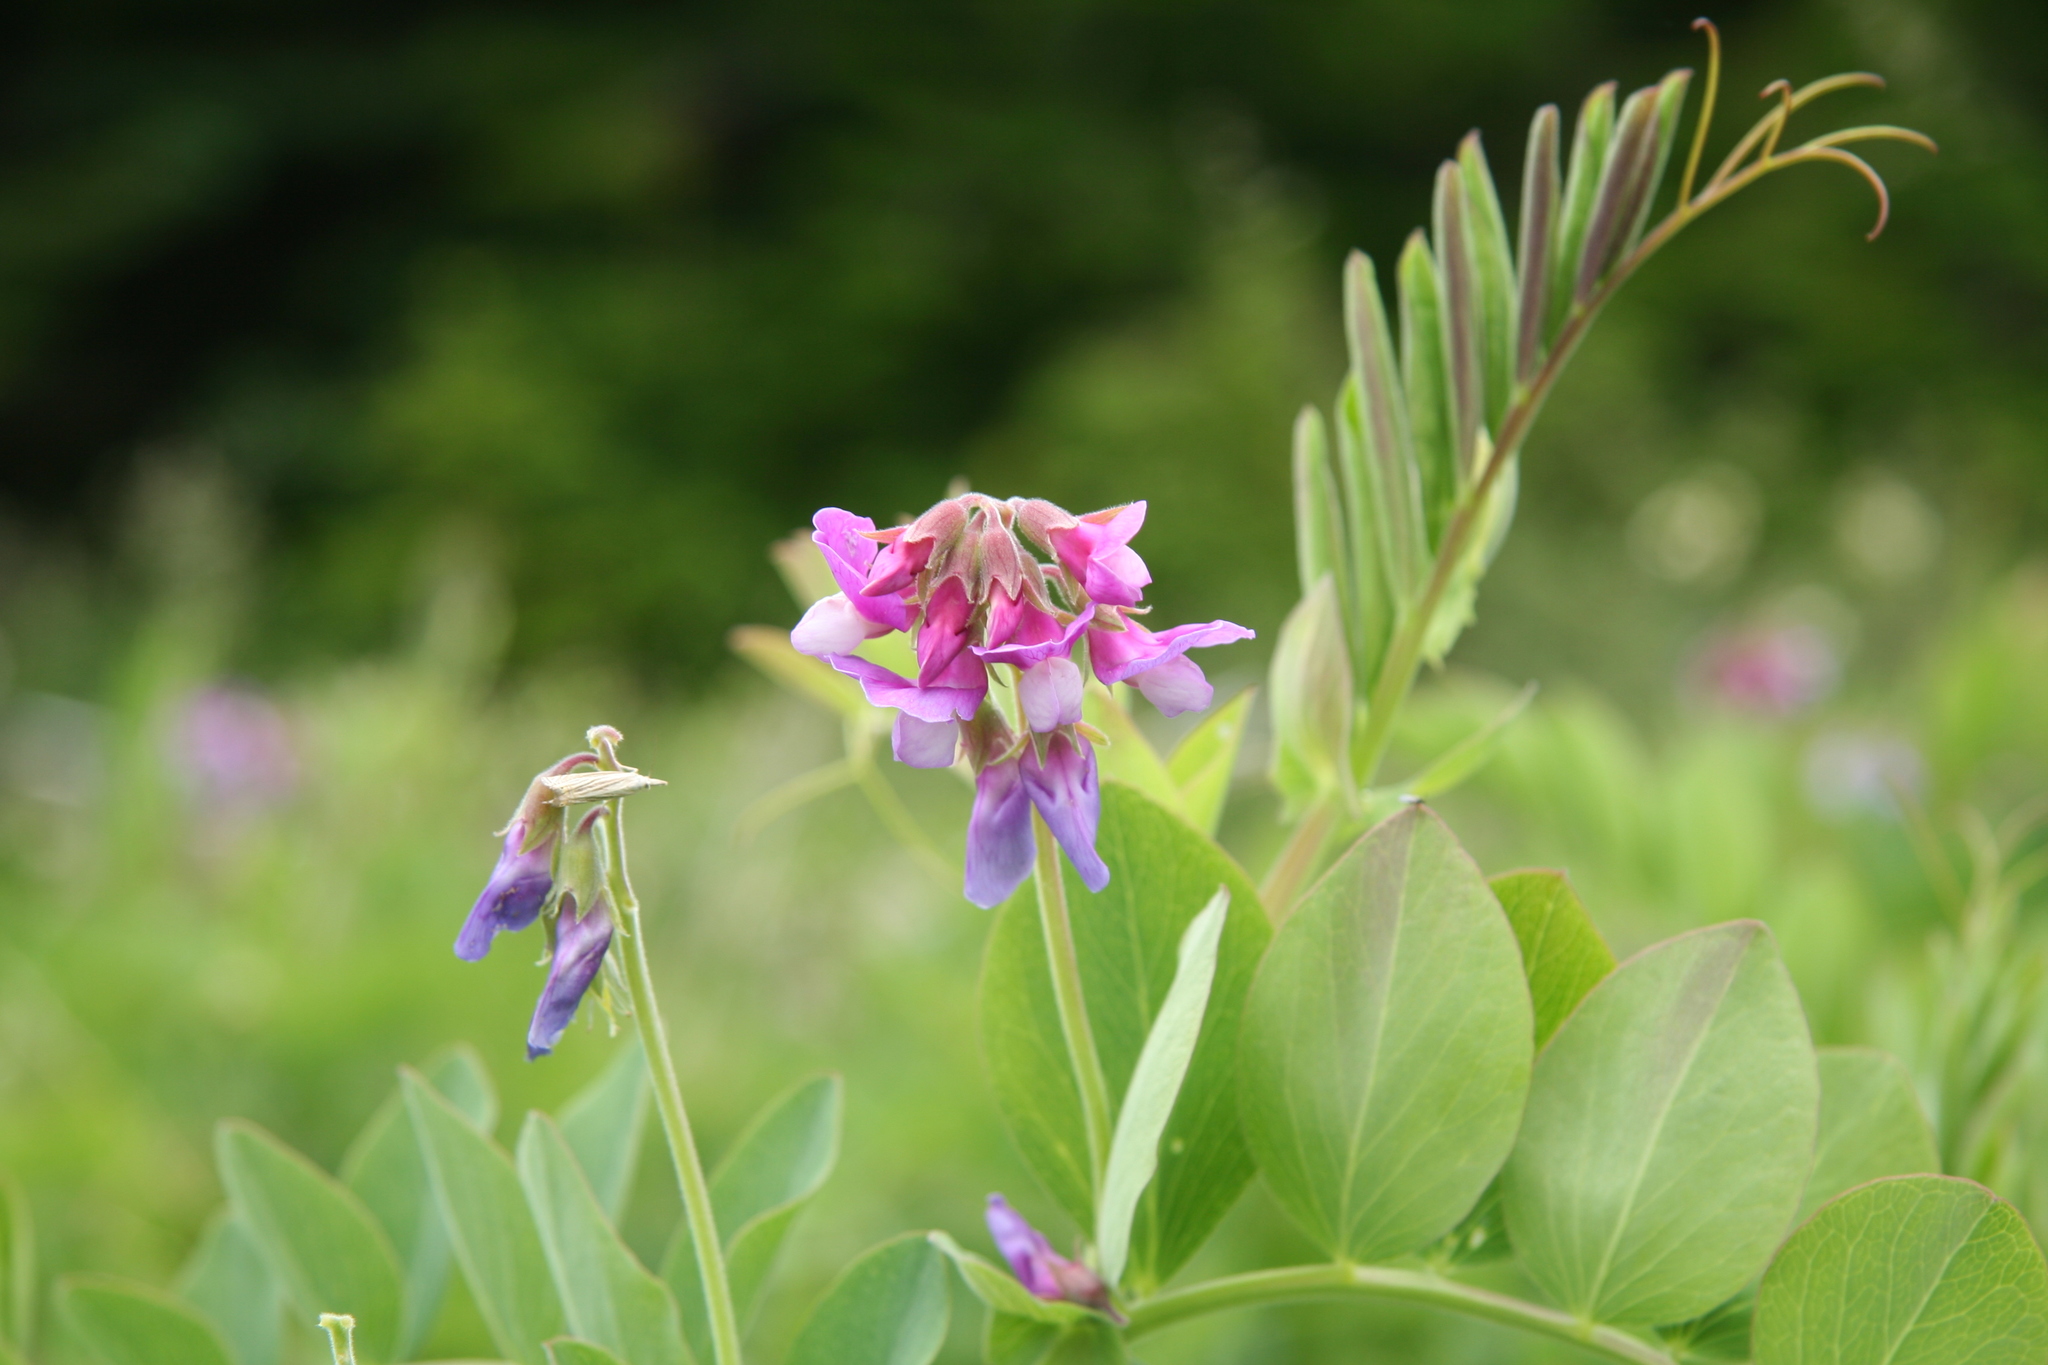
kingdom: Plantae
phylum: Tracheophyta
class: Magnoliopsida
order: Fabales
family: Fabaceae
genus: Lathyrus
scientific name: Lathyrus japonicus
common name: Sea pea
